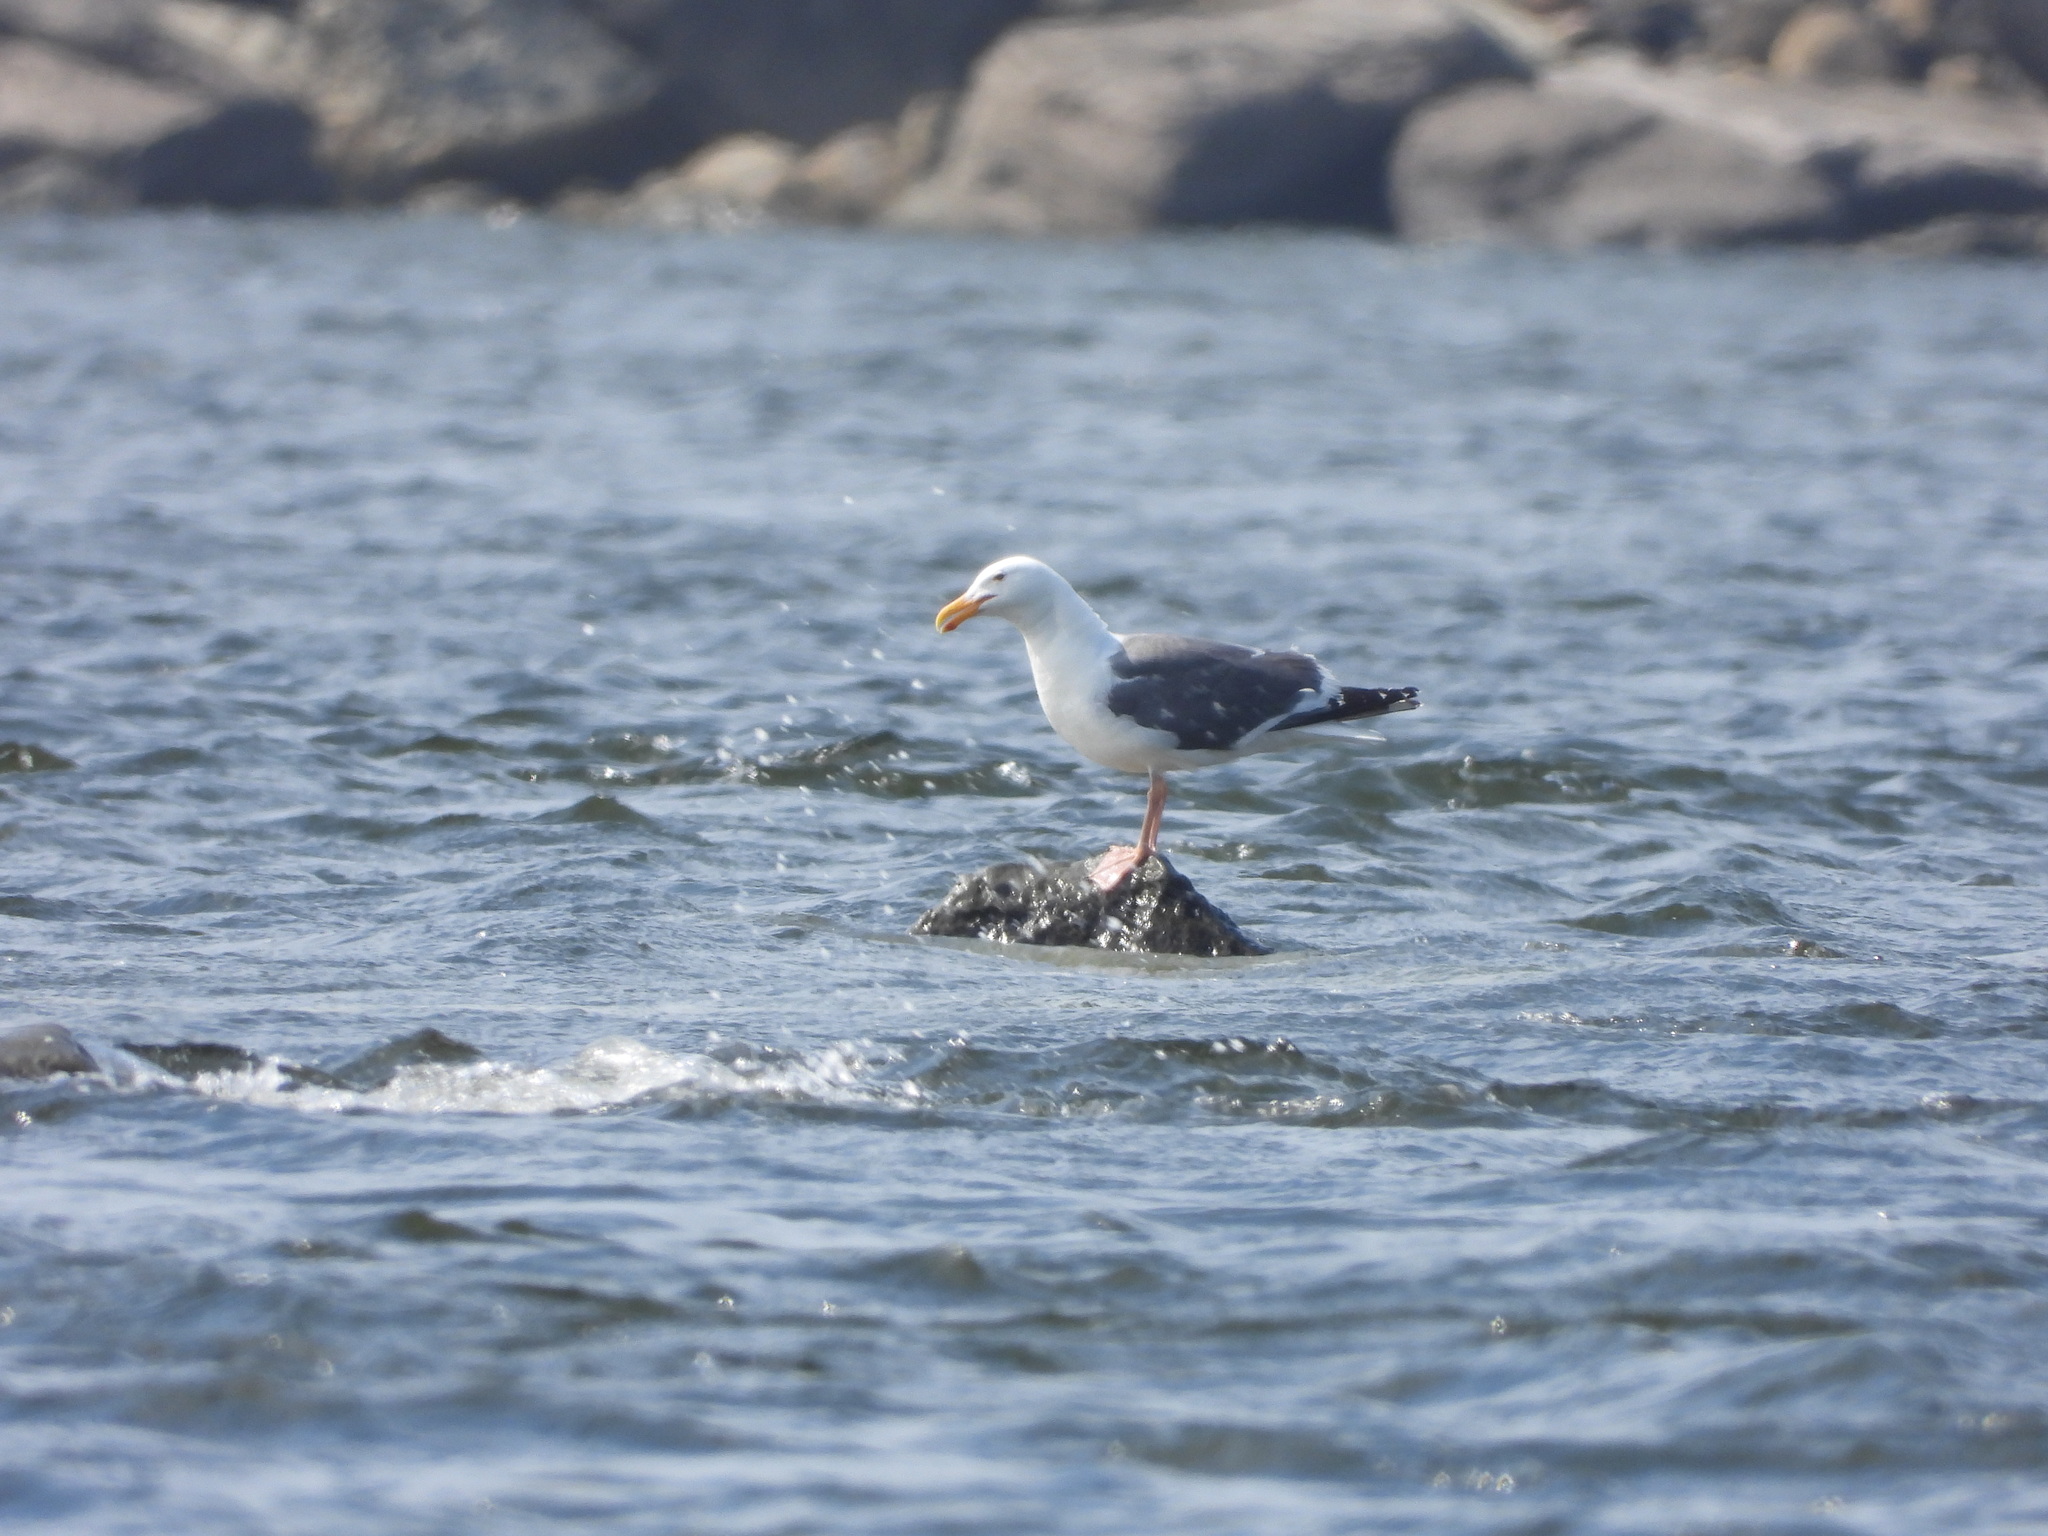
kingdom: Animalia
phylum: Chordata
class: Aves
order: Charadriiformes
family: Laridae
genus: Larus
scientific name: Larus occidentalis
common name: Western gull
